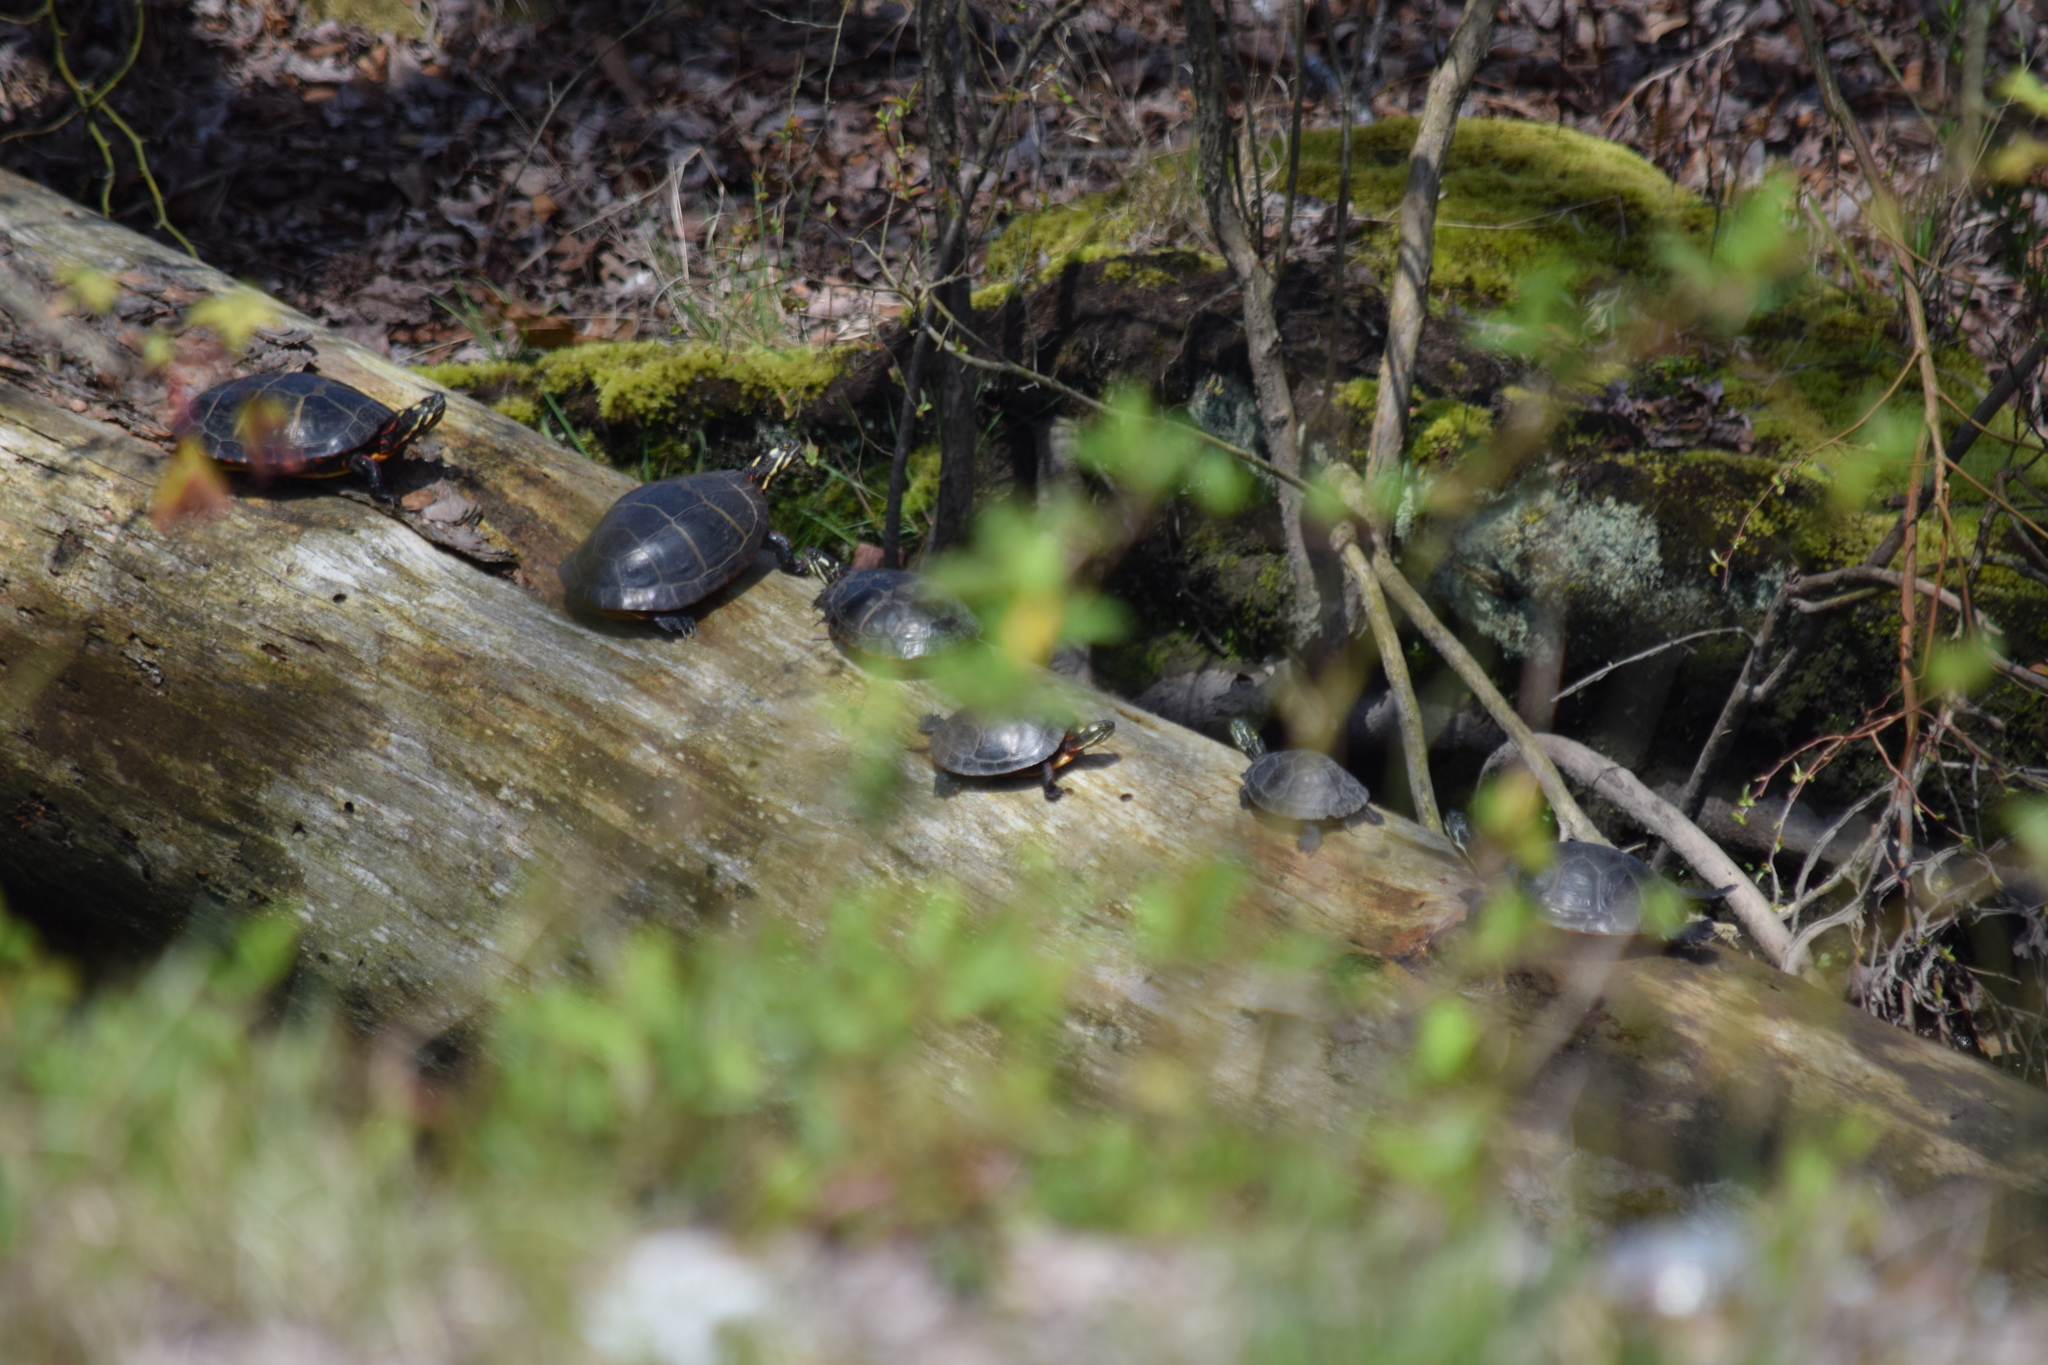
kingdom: Animalia
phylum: Chordata
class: Testudines
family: Emydidae
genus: Chrysemys
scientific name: Chrysemys picta
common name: Painted turtle
